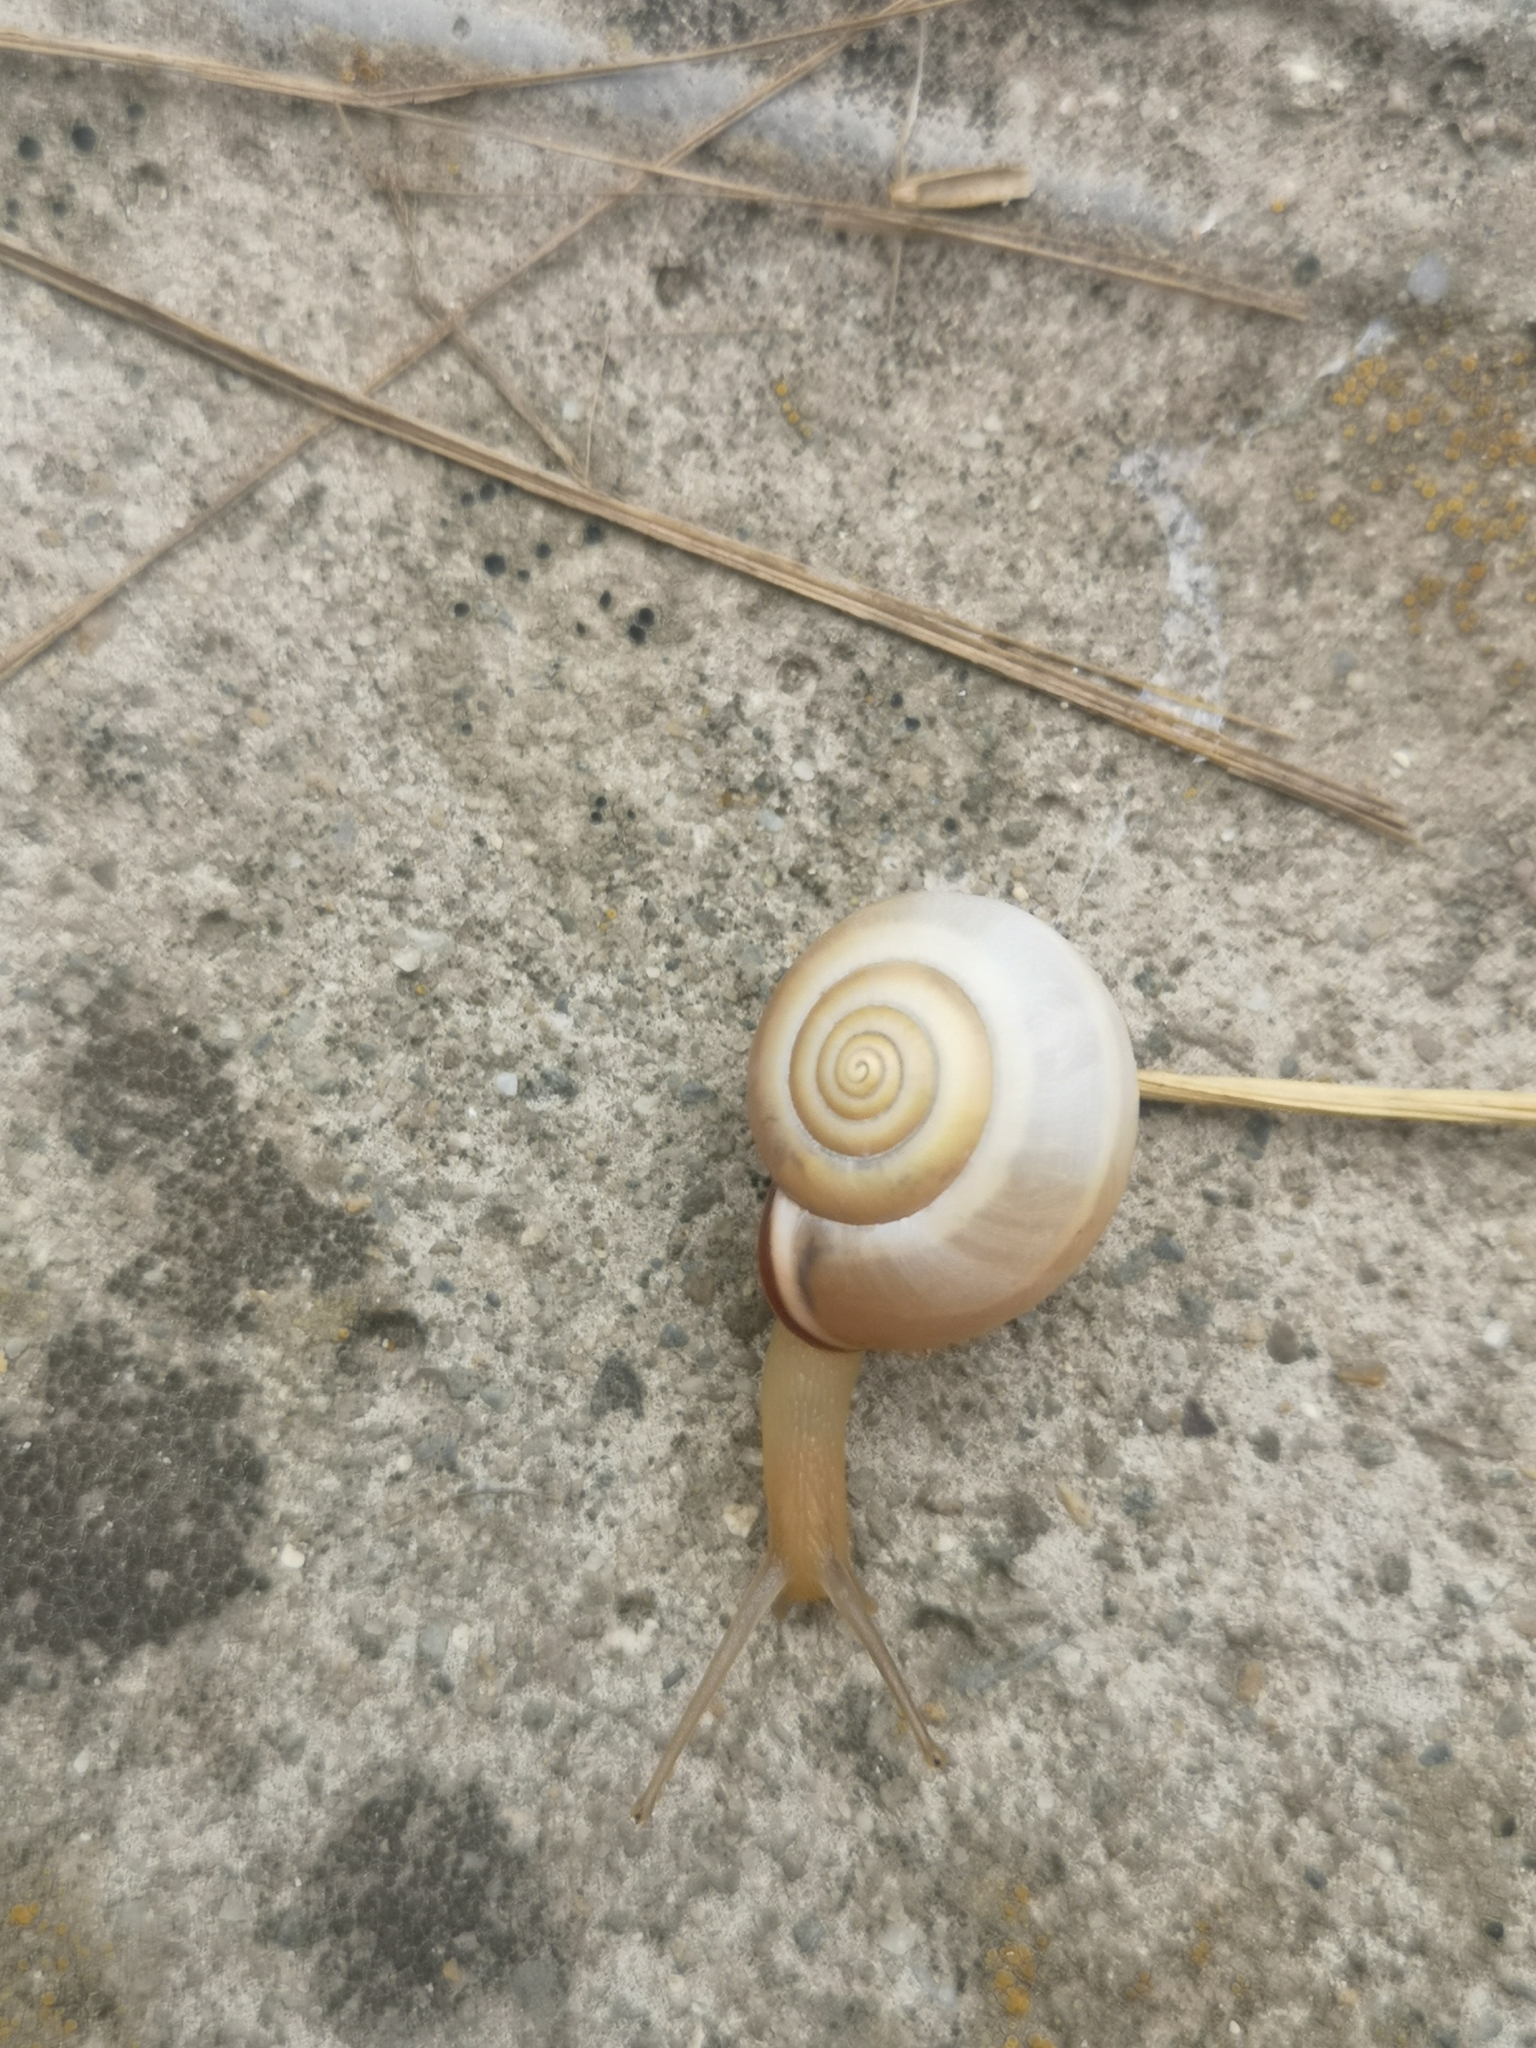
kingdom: Animalia
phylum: Mollusca
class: Gastropoda
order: Stylommatophora
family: Hygromiidae
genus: Monacha
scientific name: Monacha cartusiana
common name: Carthusian snail
